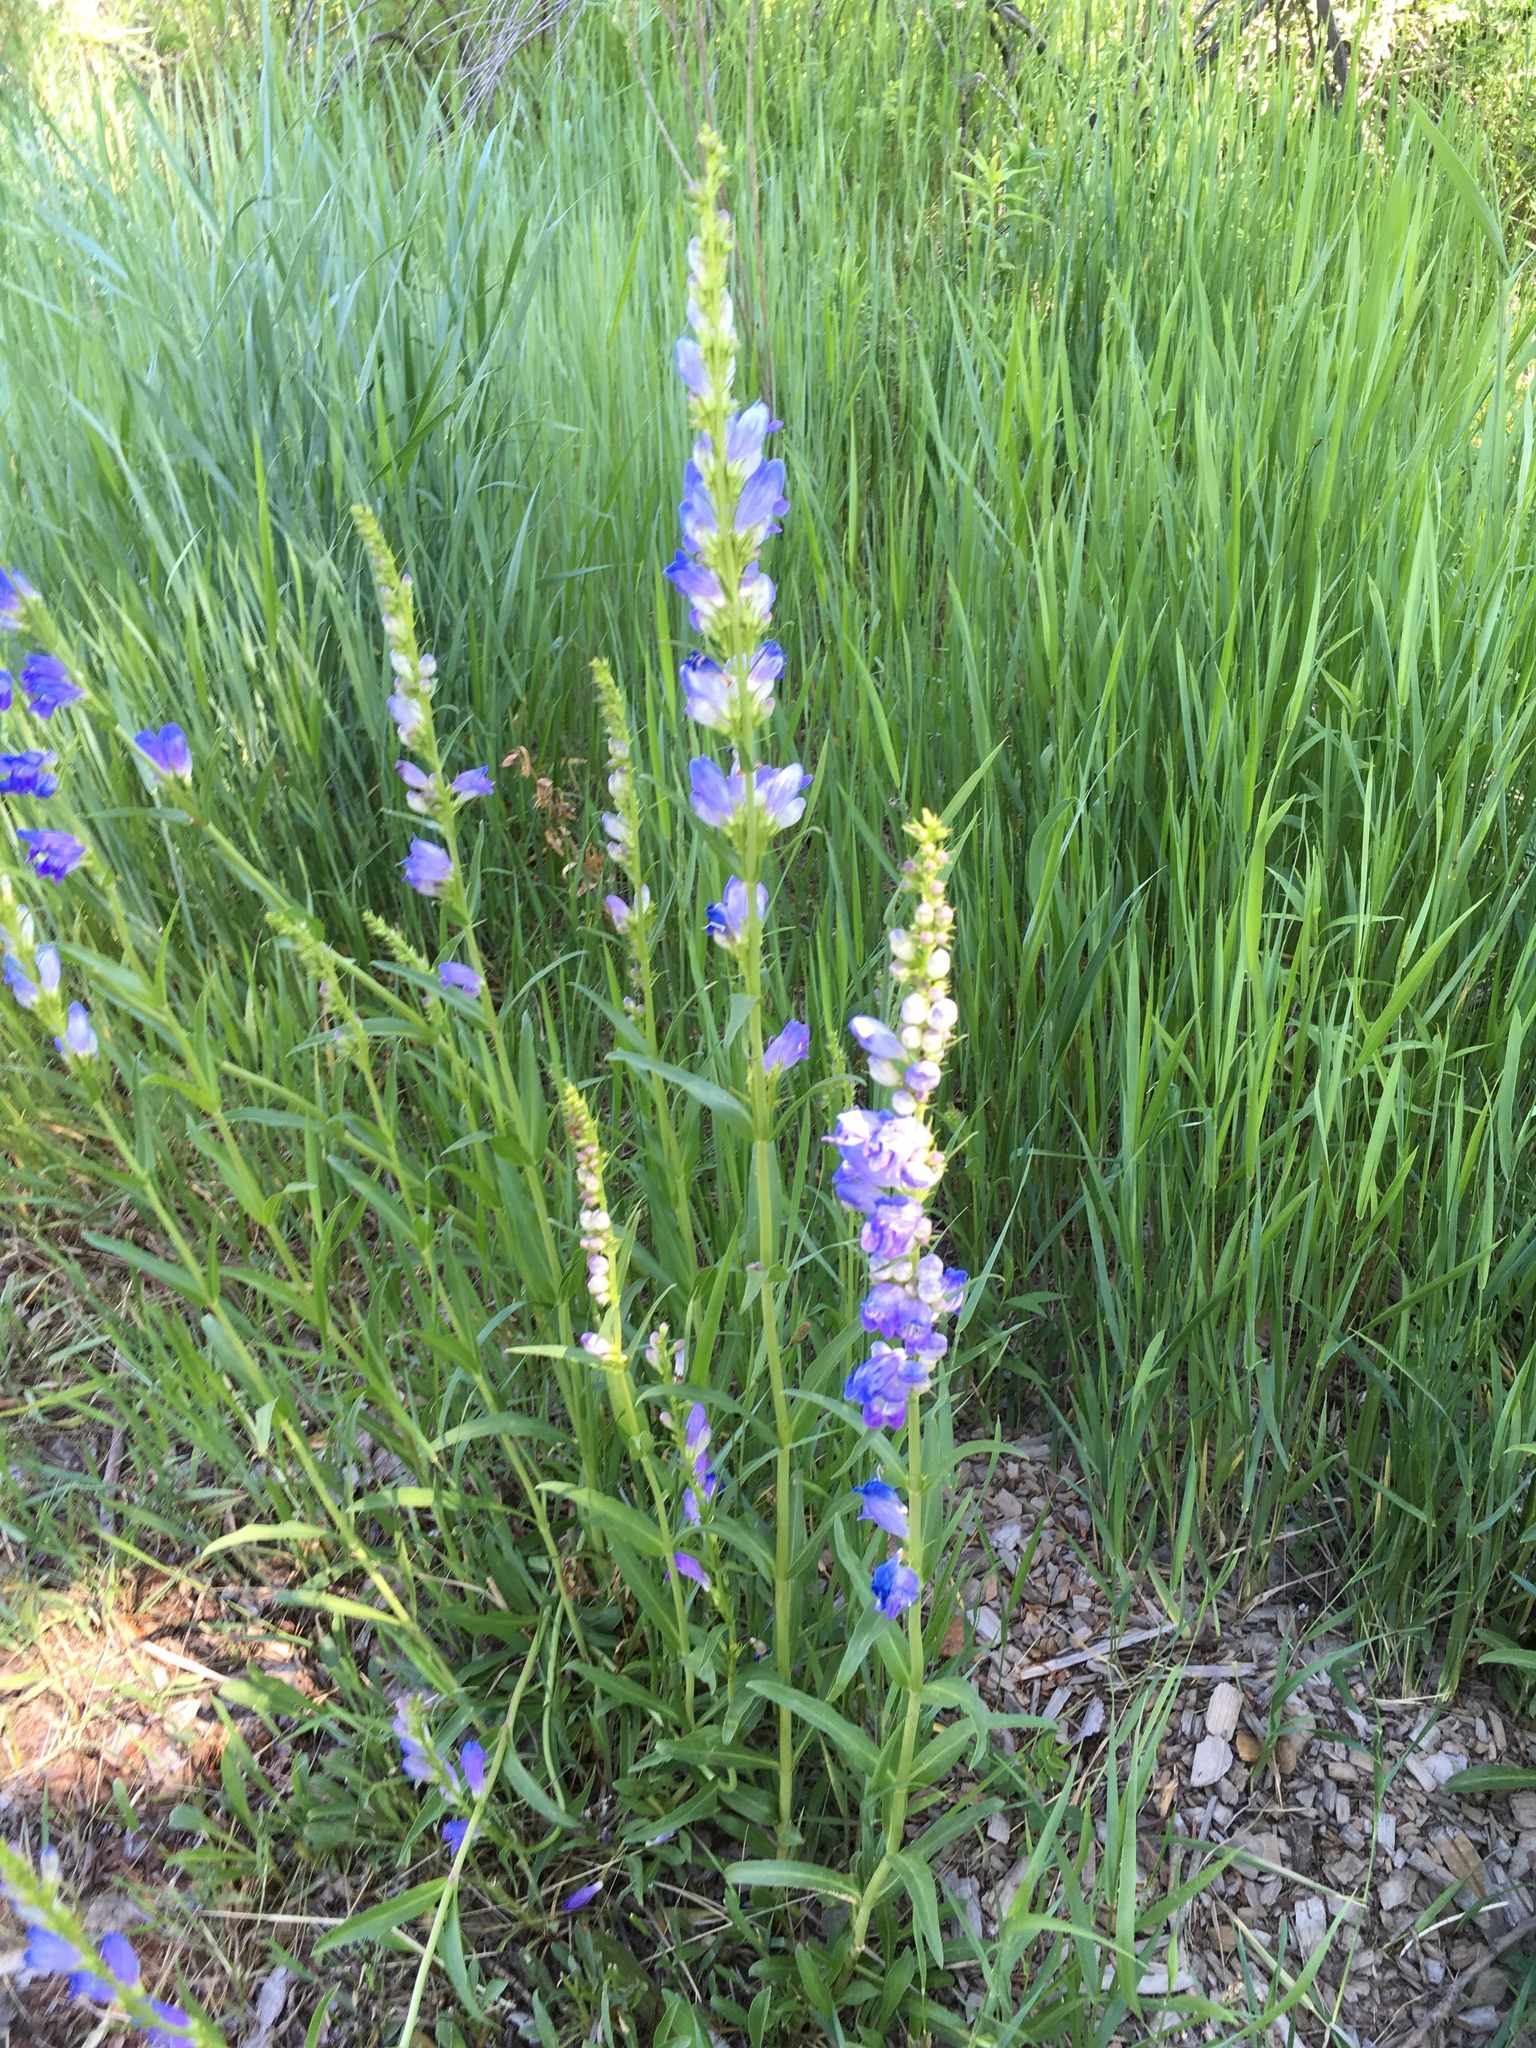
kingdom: Plantae
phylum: Tracheophyta
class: Magnoliopsida
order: Lamiales
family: Plantaginaceae
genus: Penstemon
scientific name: Penstemon strictus
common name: Rocky mountain penstemon
